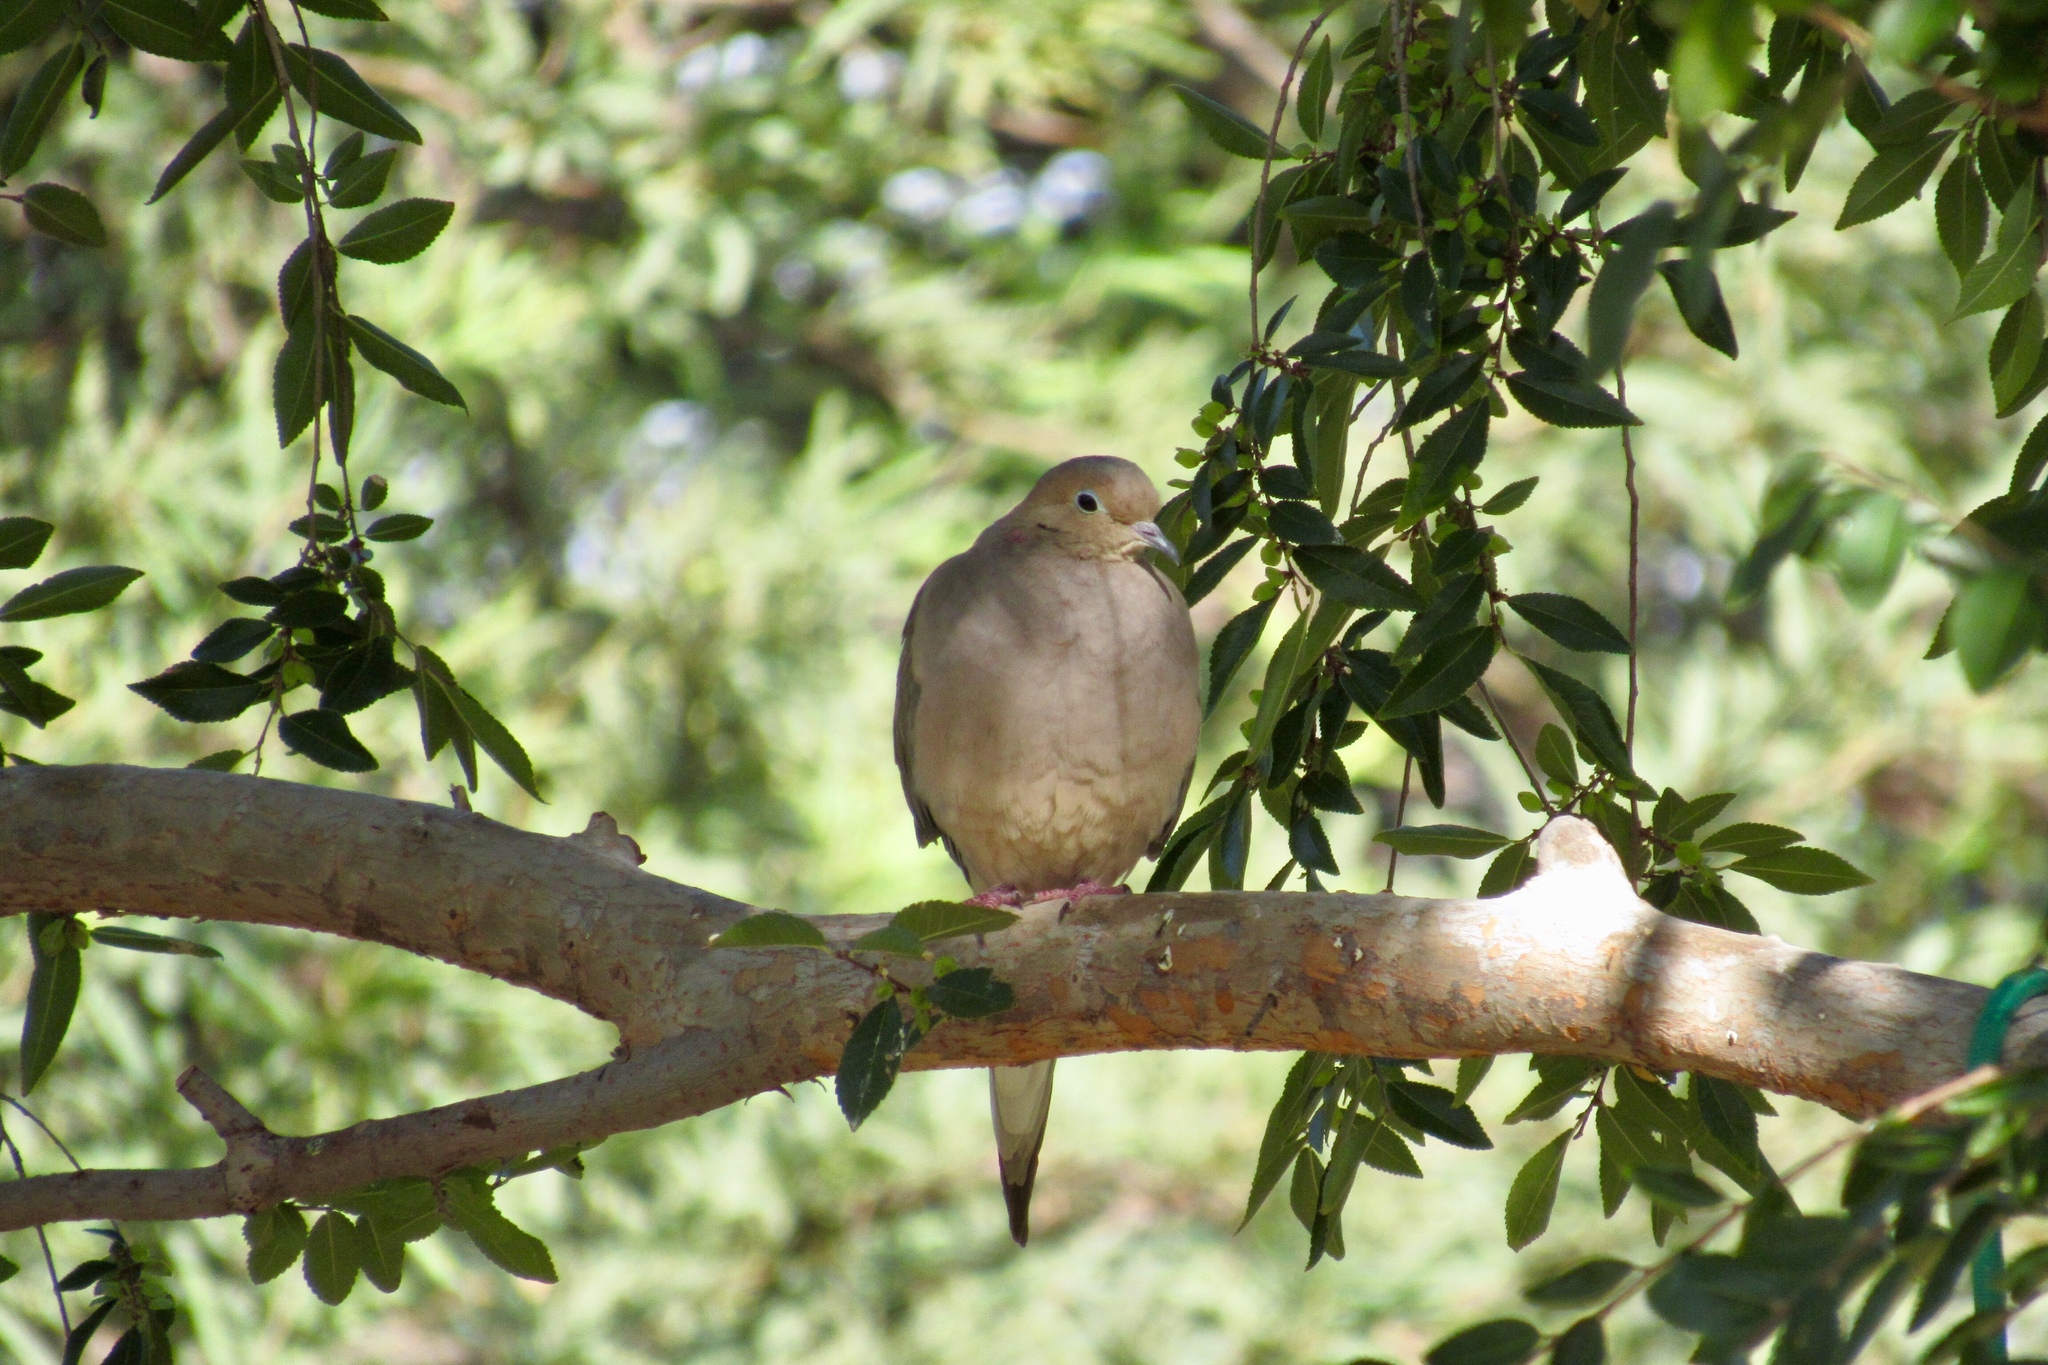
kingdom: Animalia
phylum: Chordata
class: Aves
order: Columbiformes
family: Columbidae
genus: Zenaida
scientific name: Zenaida macroura
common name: Mourning dove
